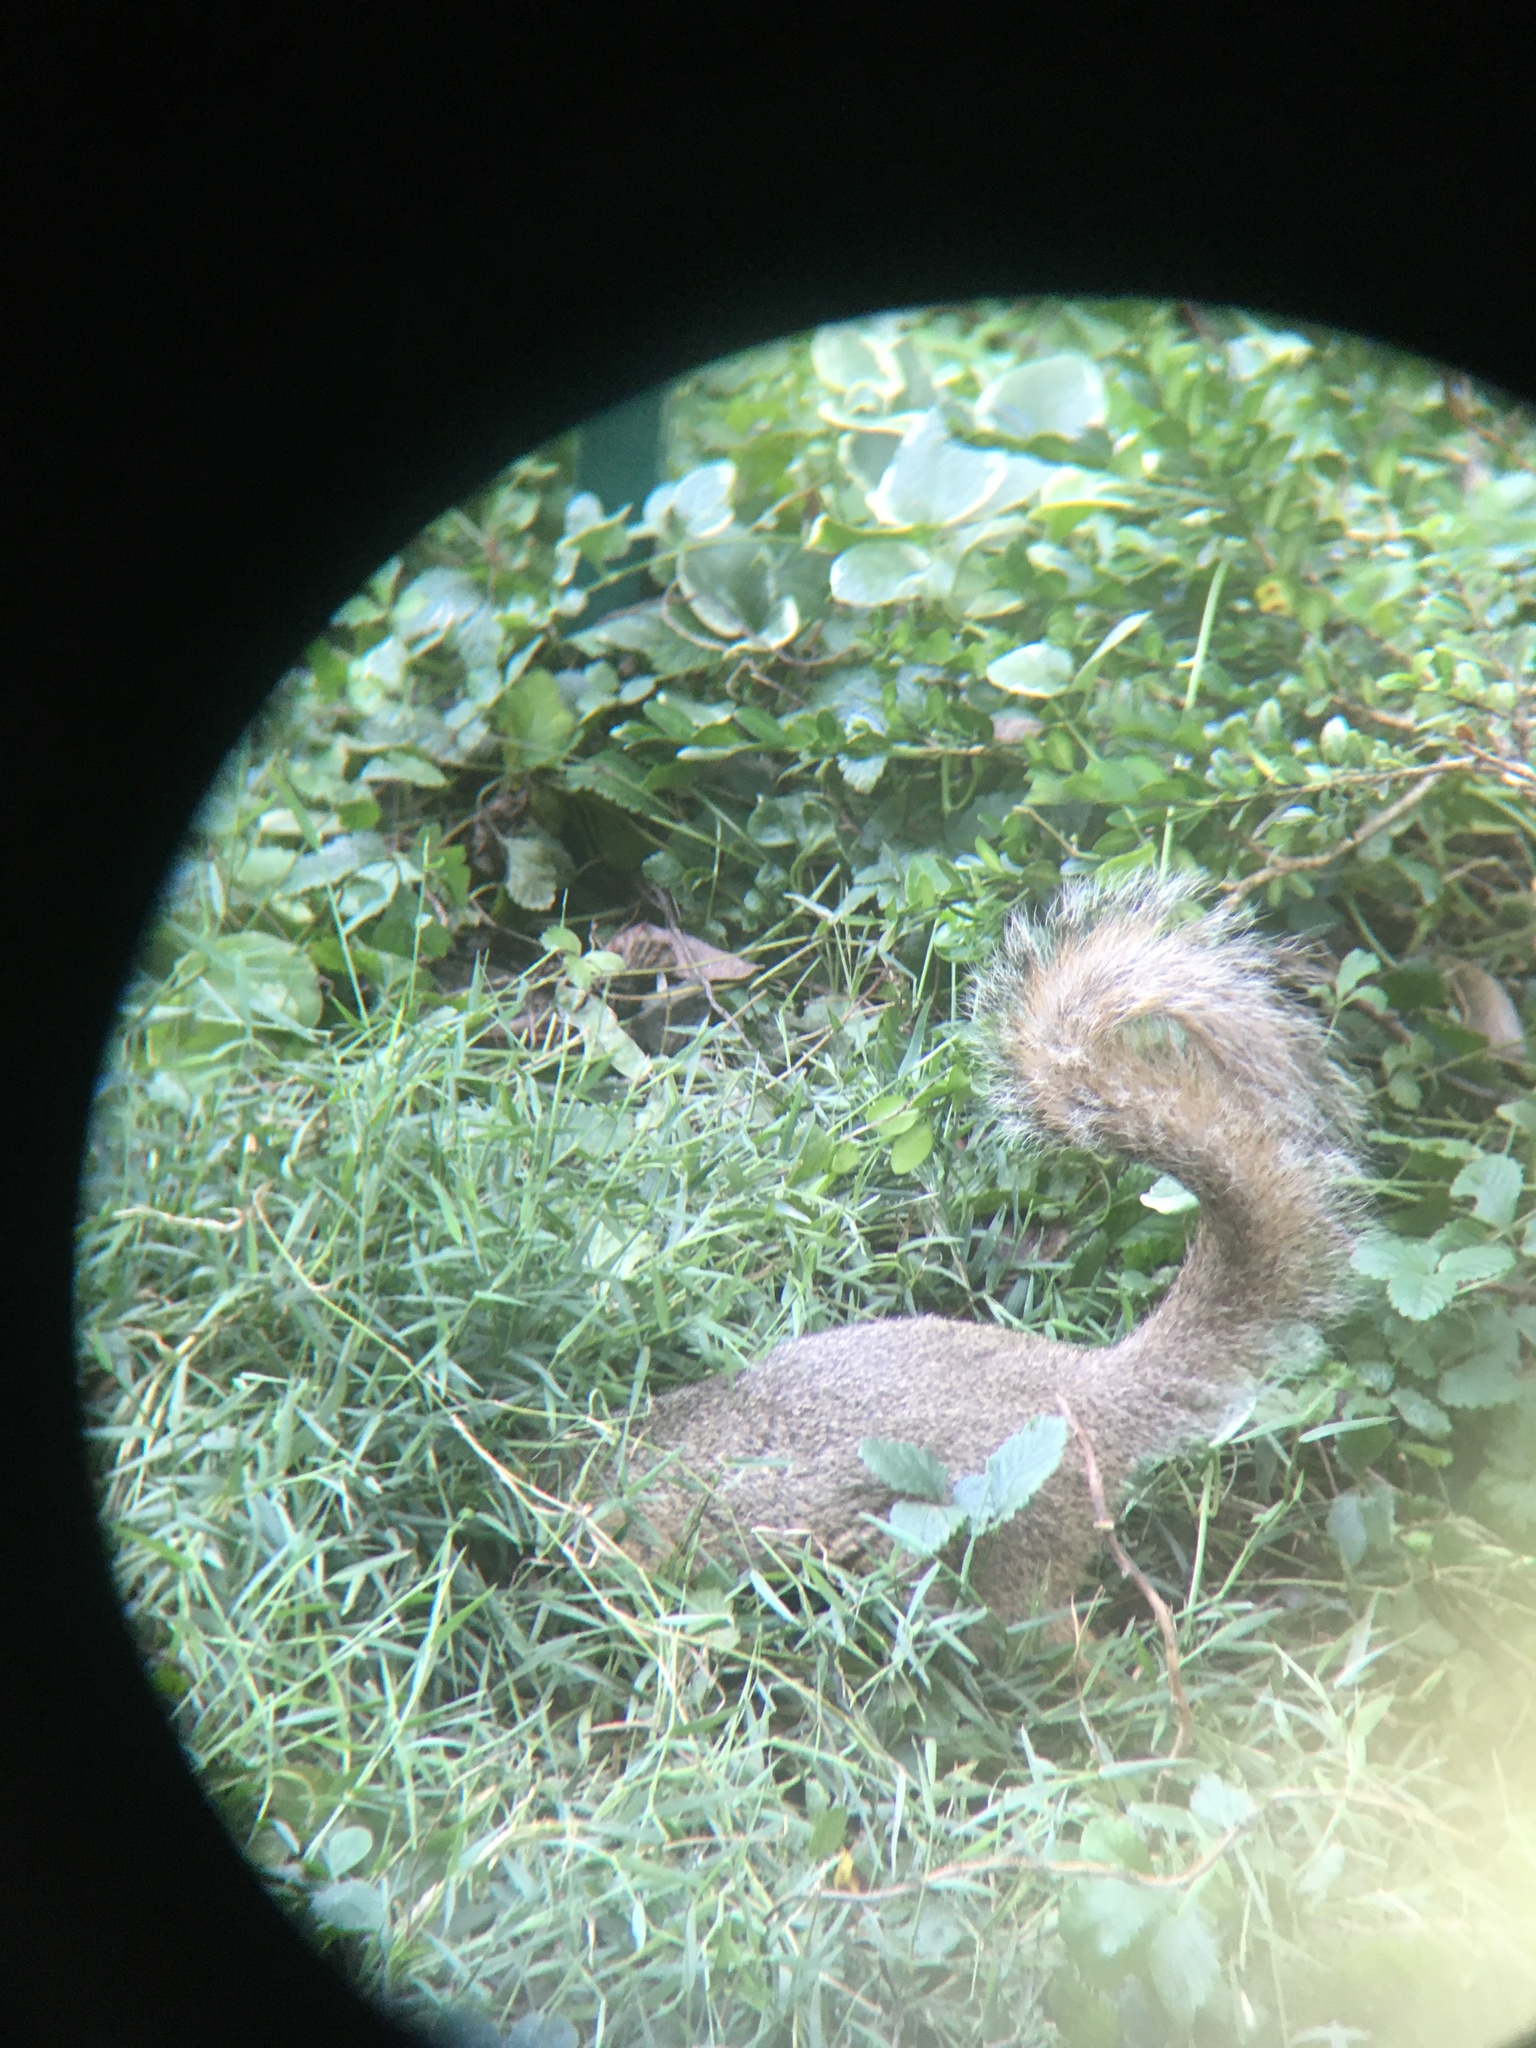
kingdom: Animalia
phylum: Chordata
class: Mammalia
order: Rodentia
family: Sciuridae
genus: Sciurus
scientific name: Sciurus carolinensis
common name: Eastern gray squirrel
